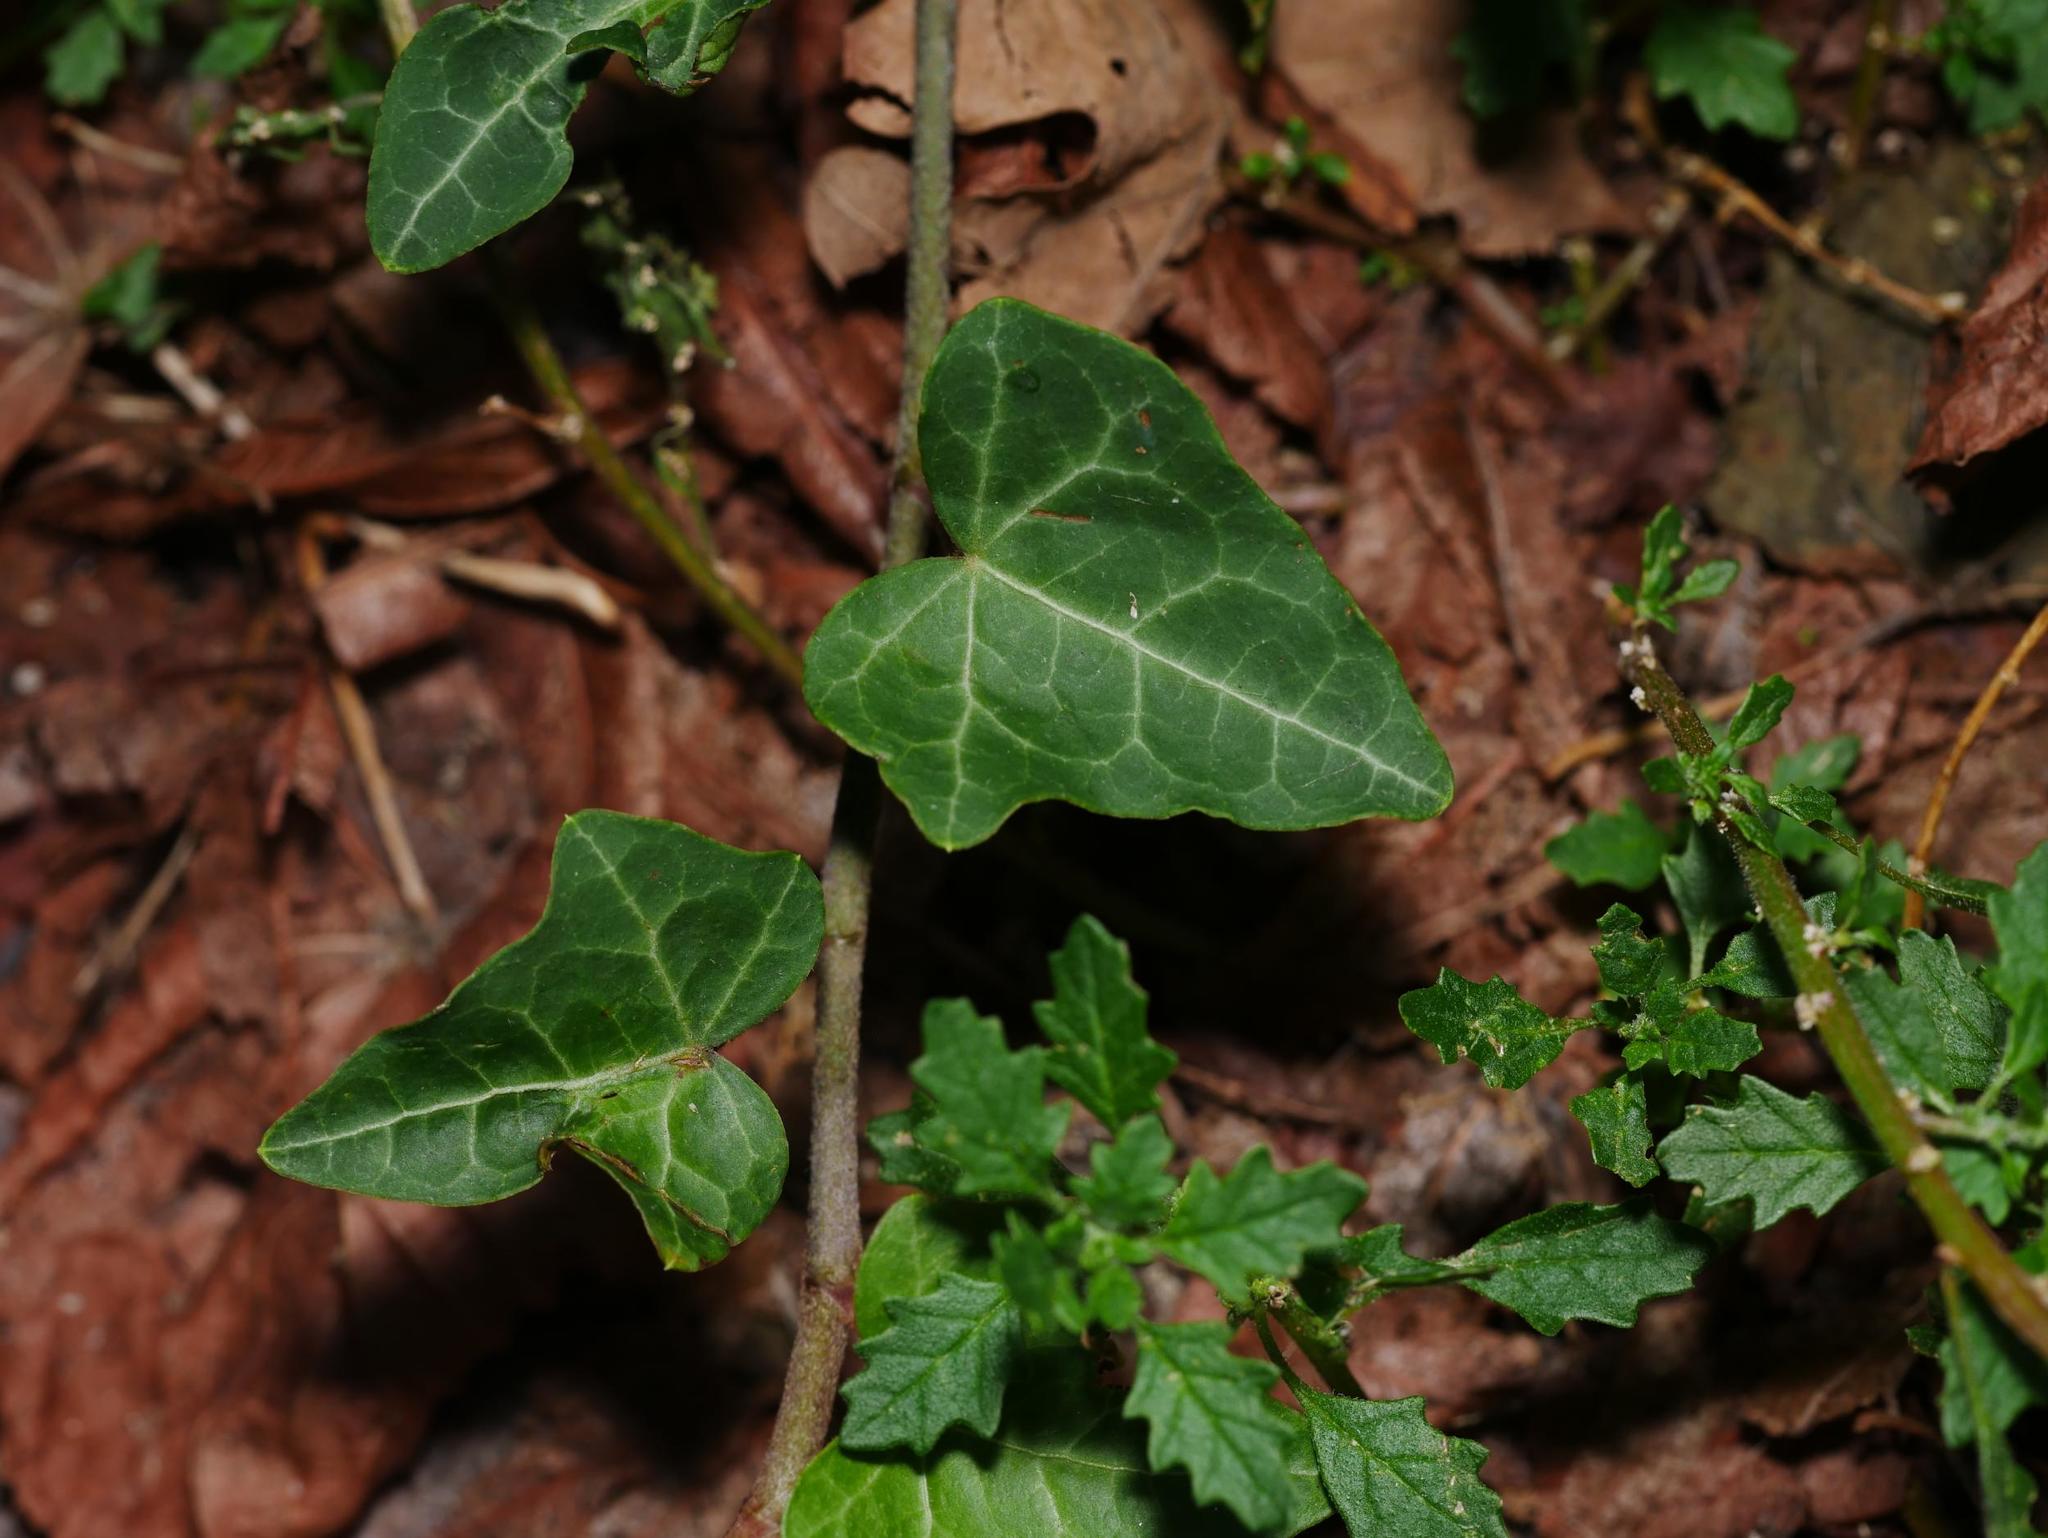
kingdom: Plantae
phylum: Tracheophyta
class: Magnoliopsida
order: Apiales
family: Araliaceae
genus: Hedera
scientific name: Hedera helix
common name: Ivy
